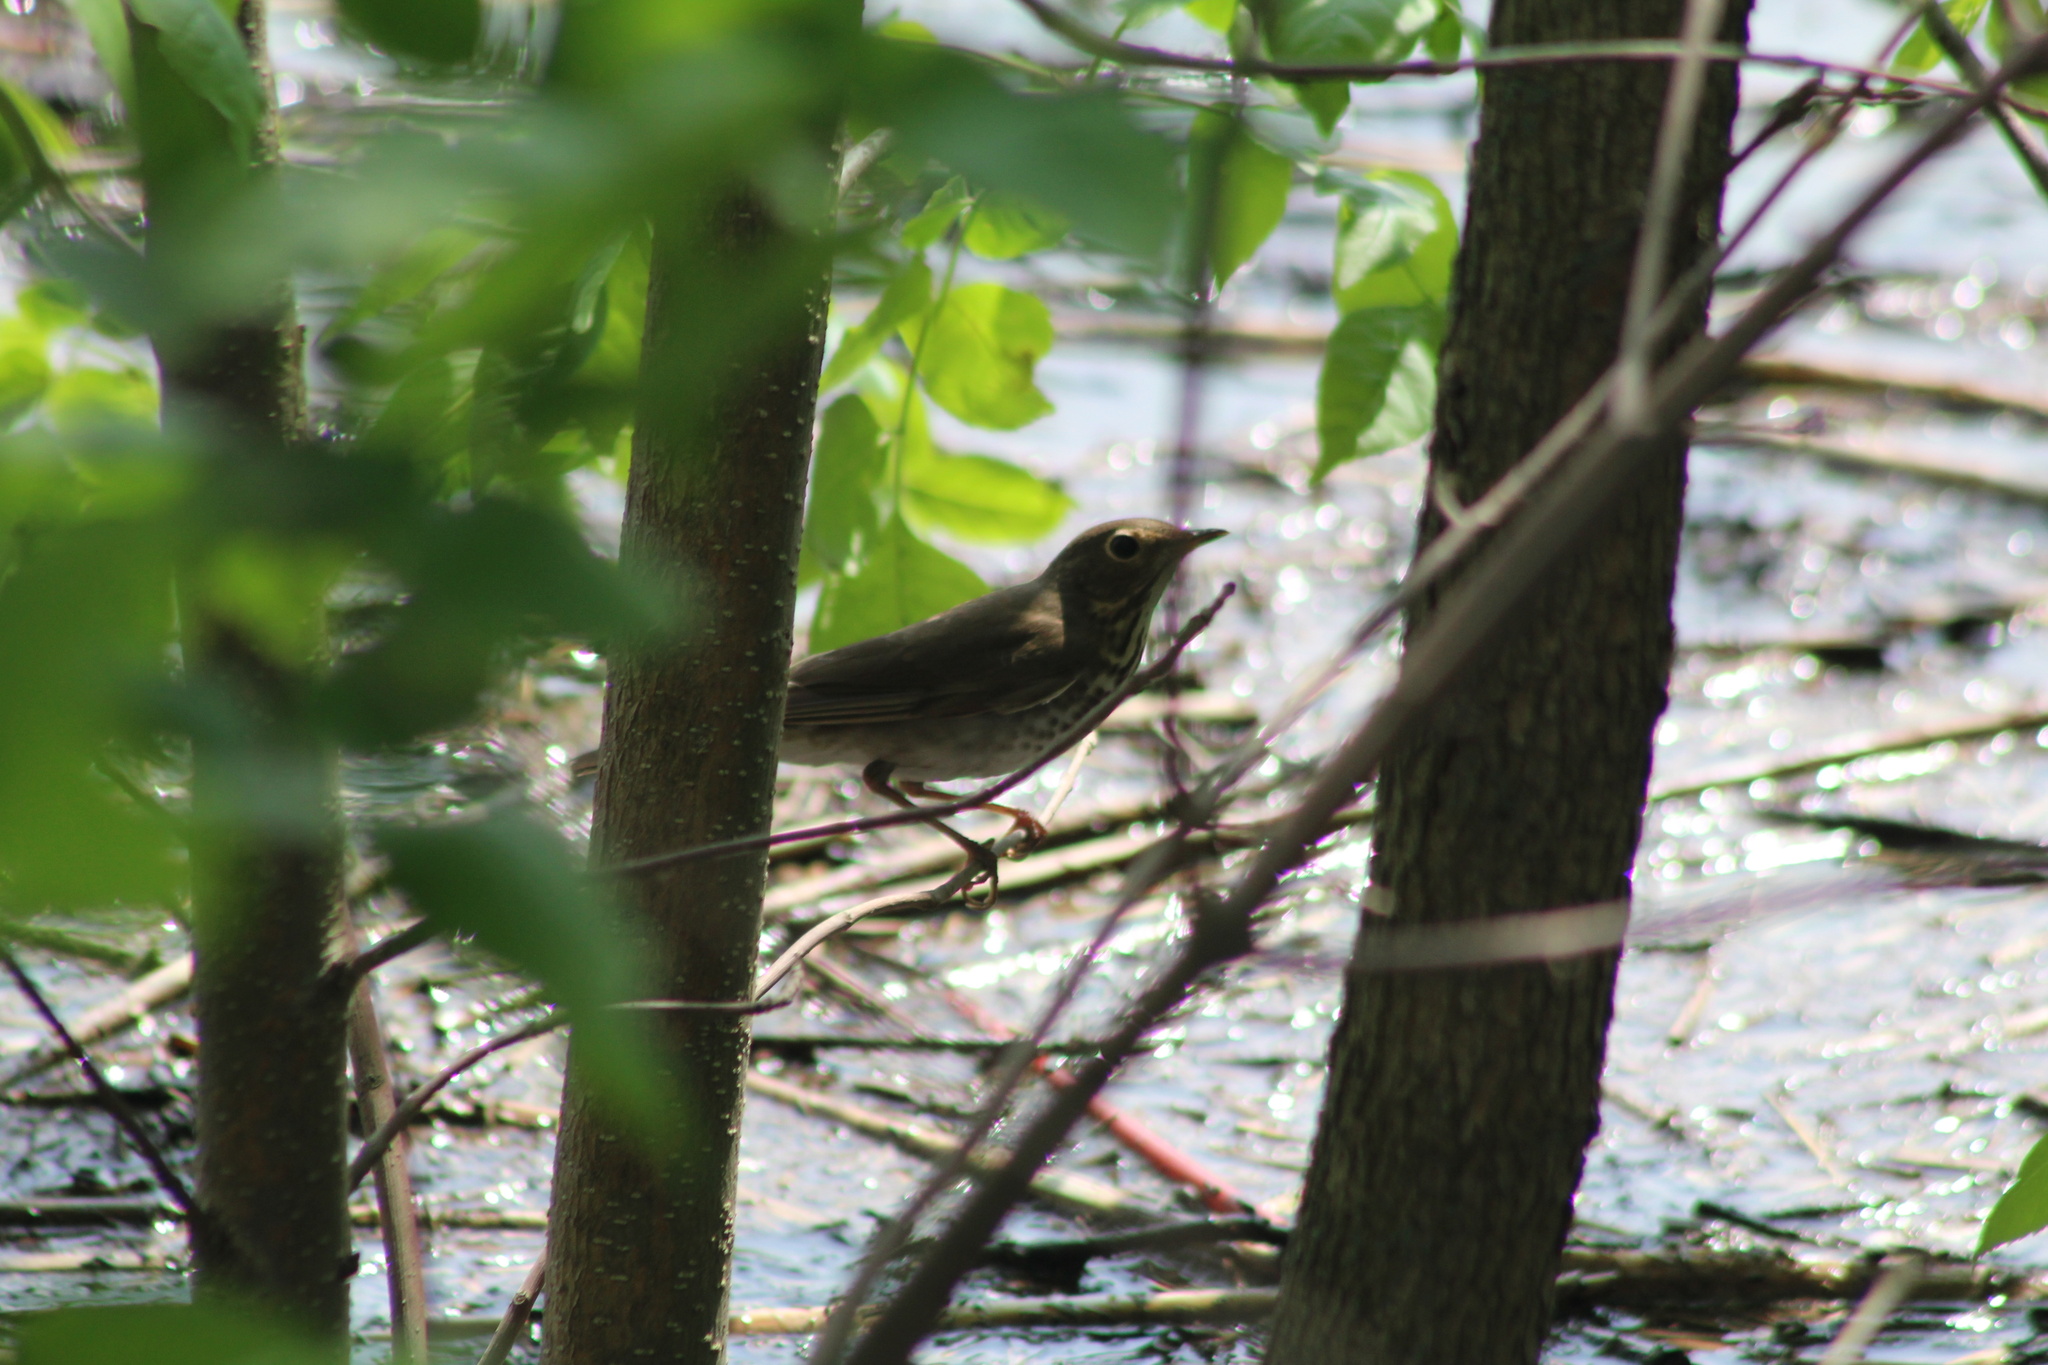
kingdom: Animalia
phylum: Chordata
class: Aves
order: Passeriformes
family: Turdidae
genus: Catharus
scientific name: Catharus ustulatus
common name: Swainson's thrush
